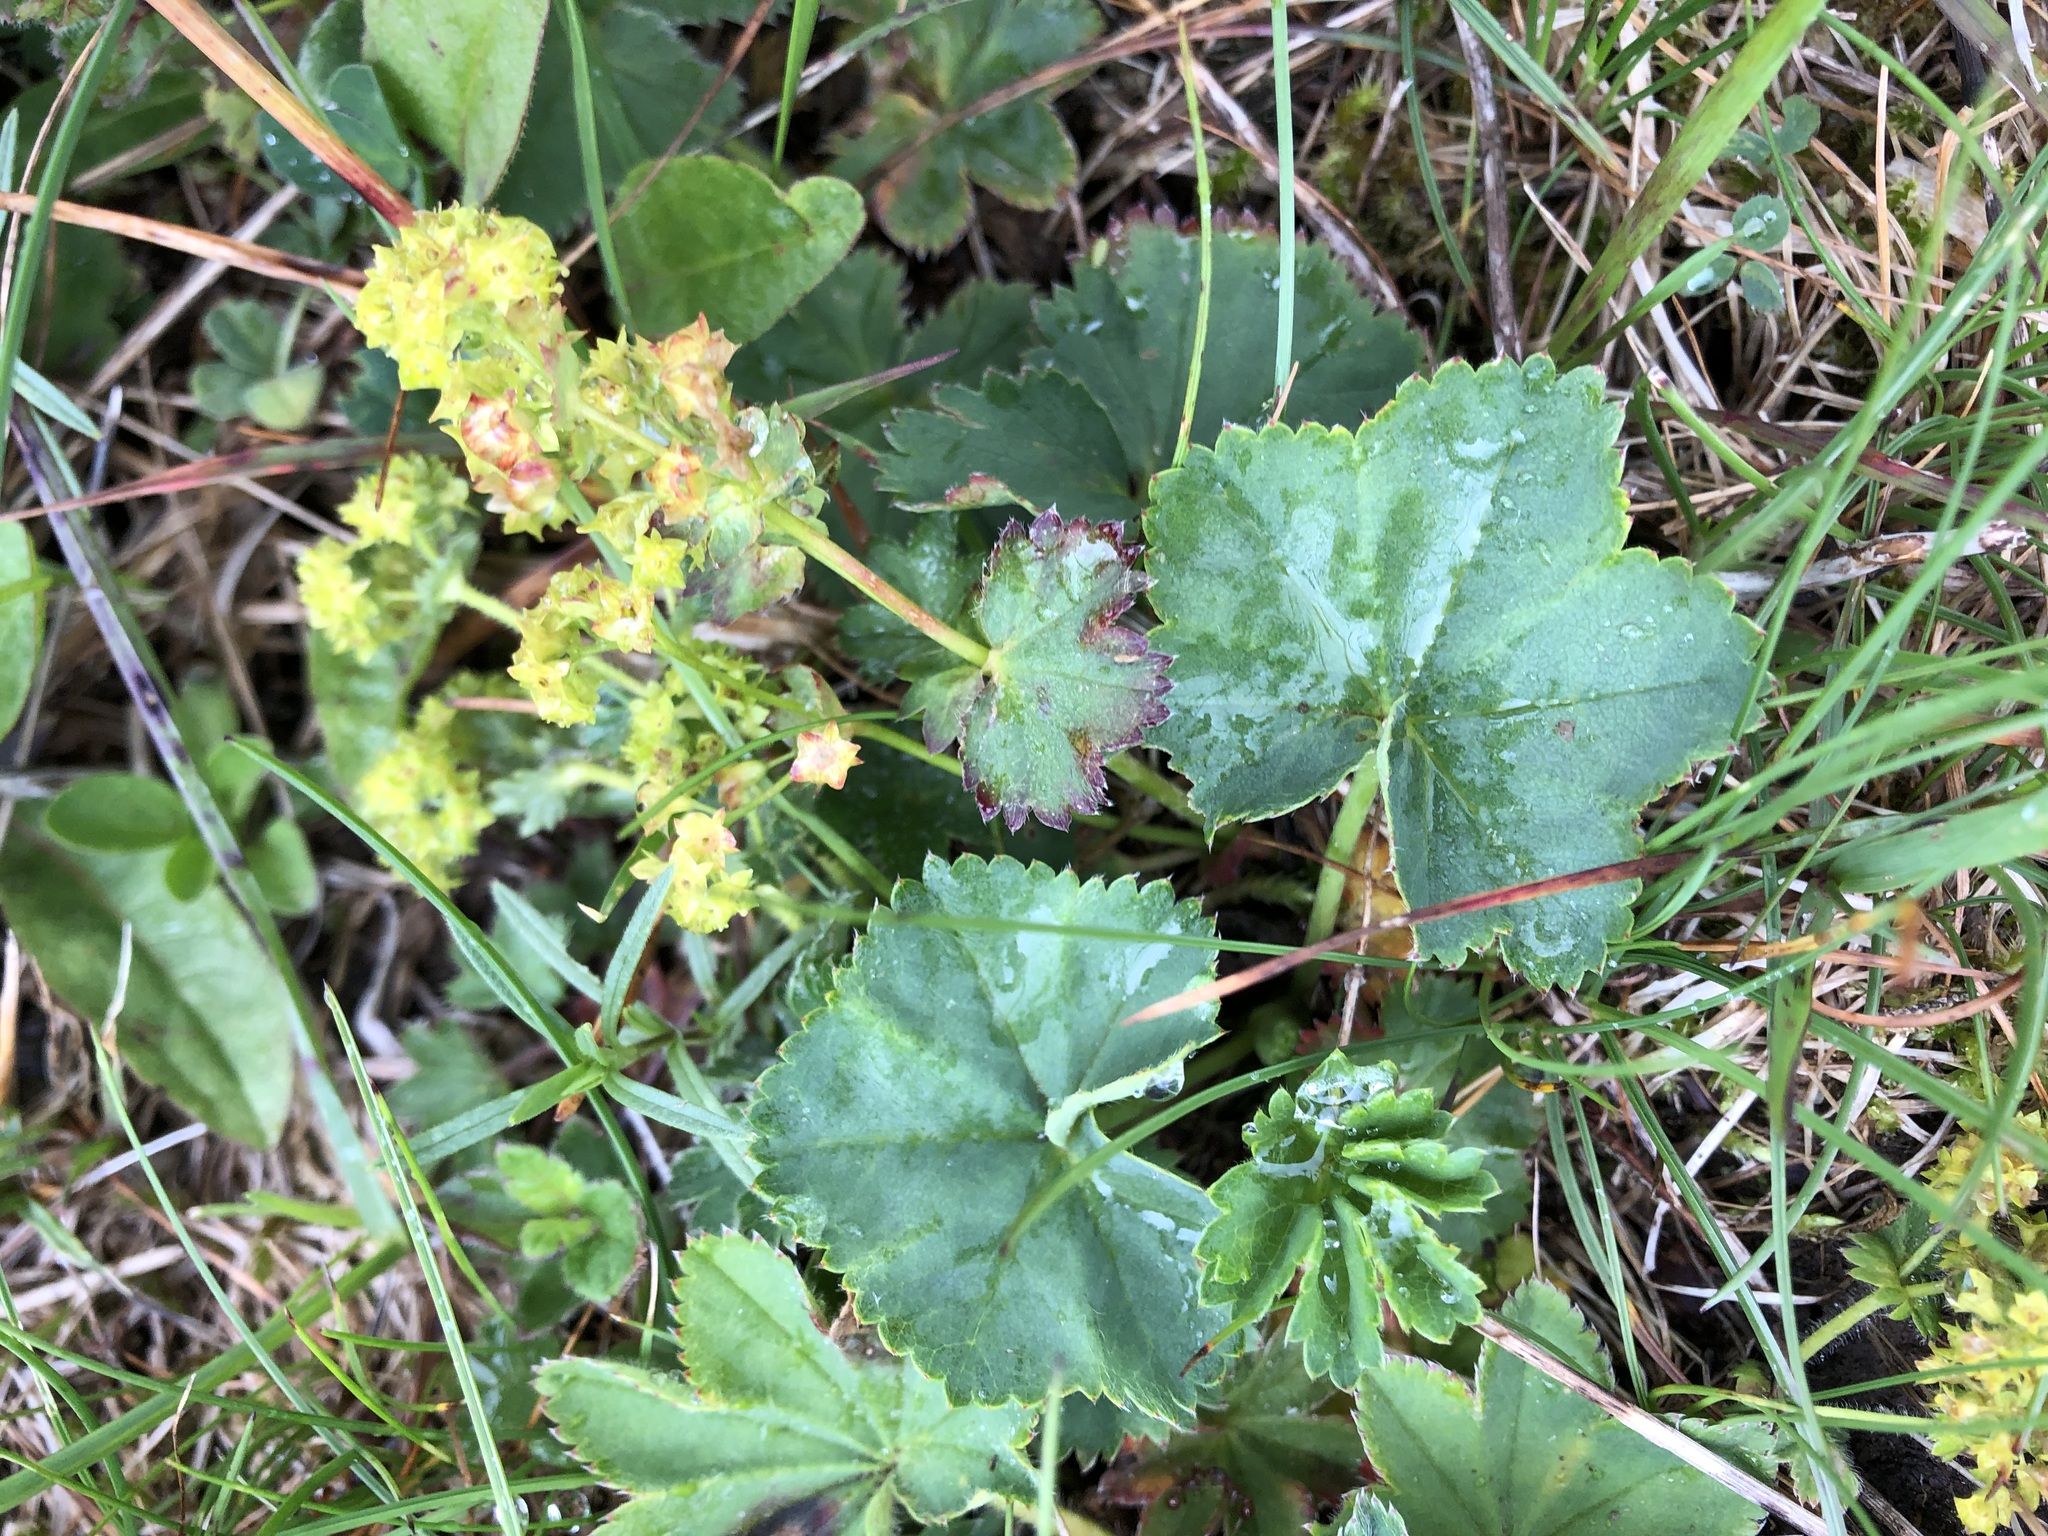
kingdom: Plantae
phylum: Tracheophyta
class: Magnoliopsida
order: Rosales
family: Rosaceae
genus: Alchemilla
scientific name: Alchemilla vulgaris
